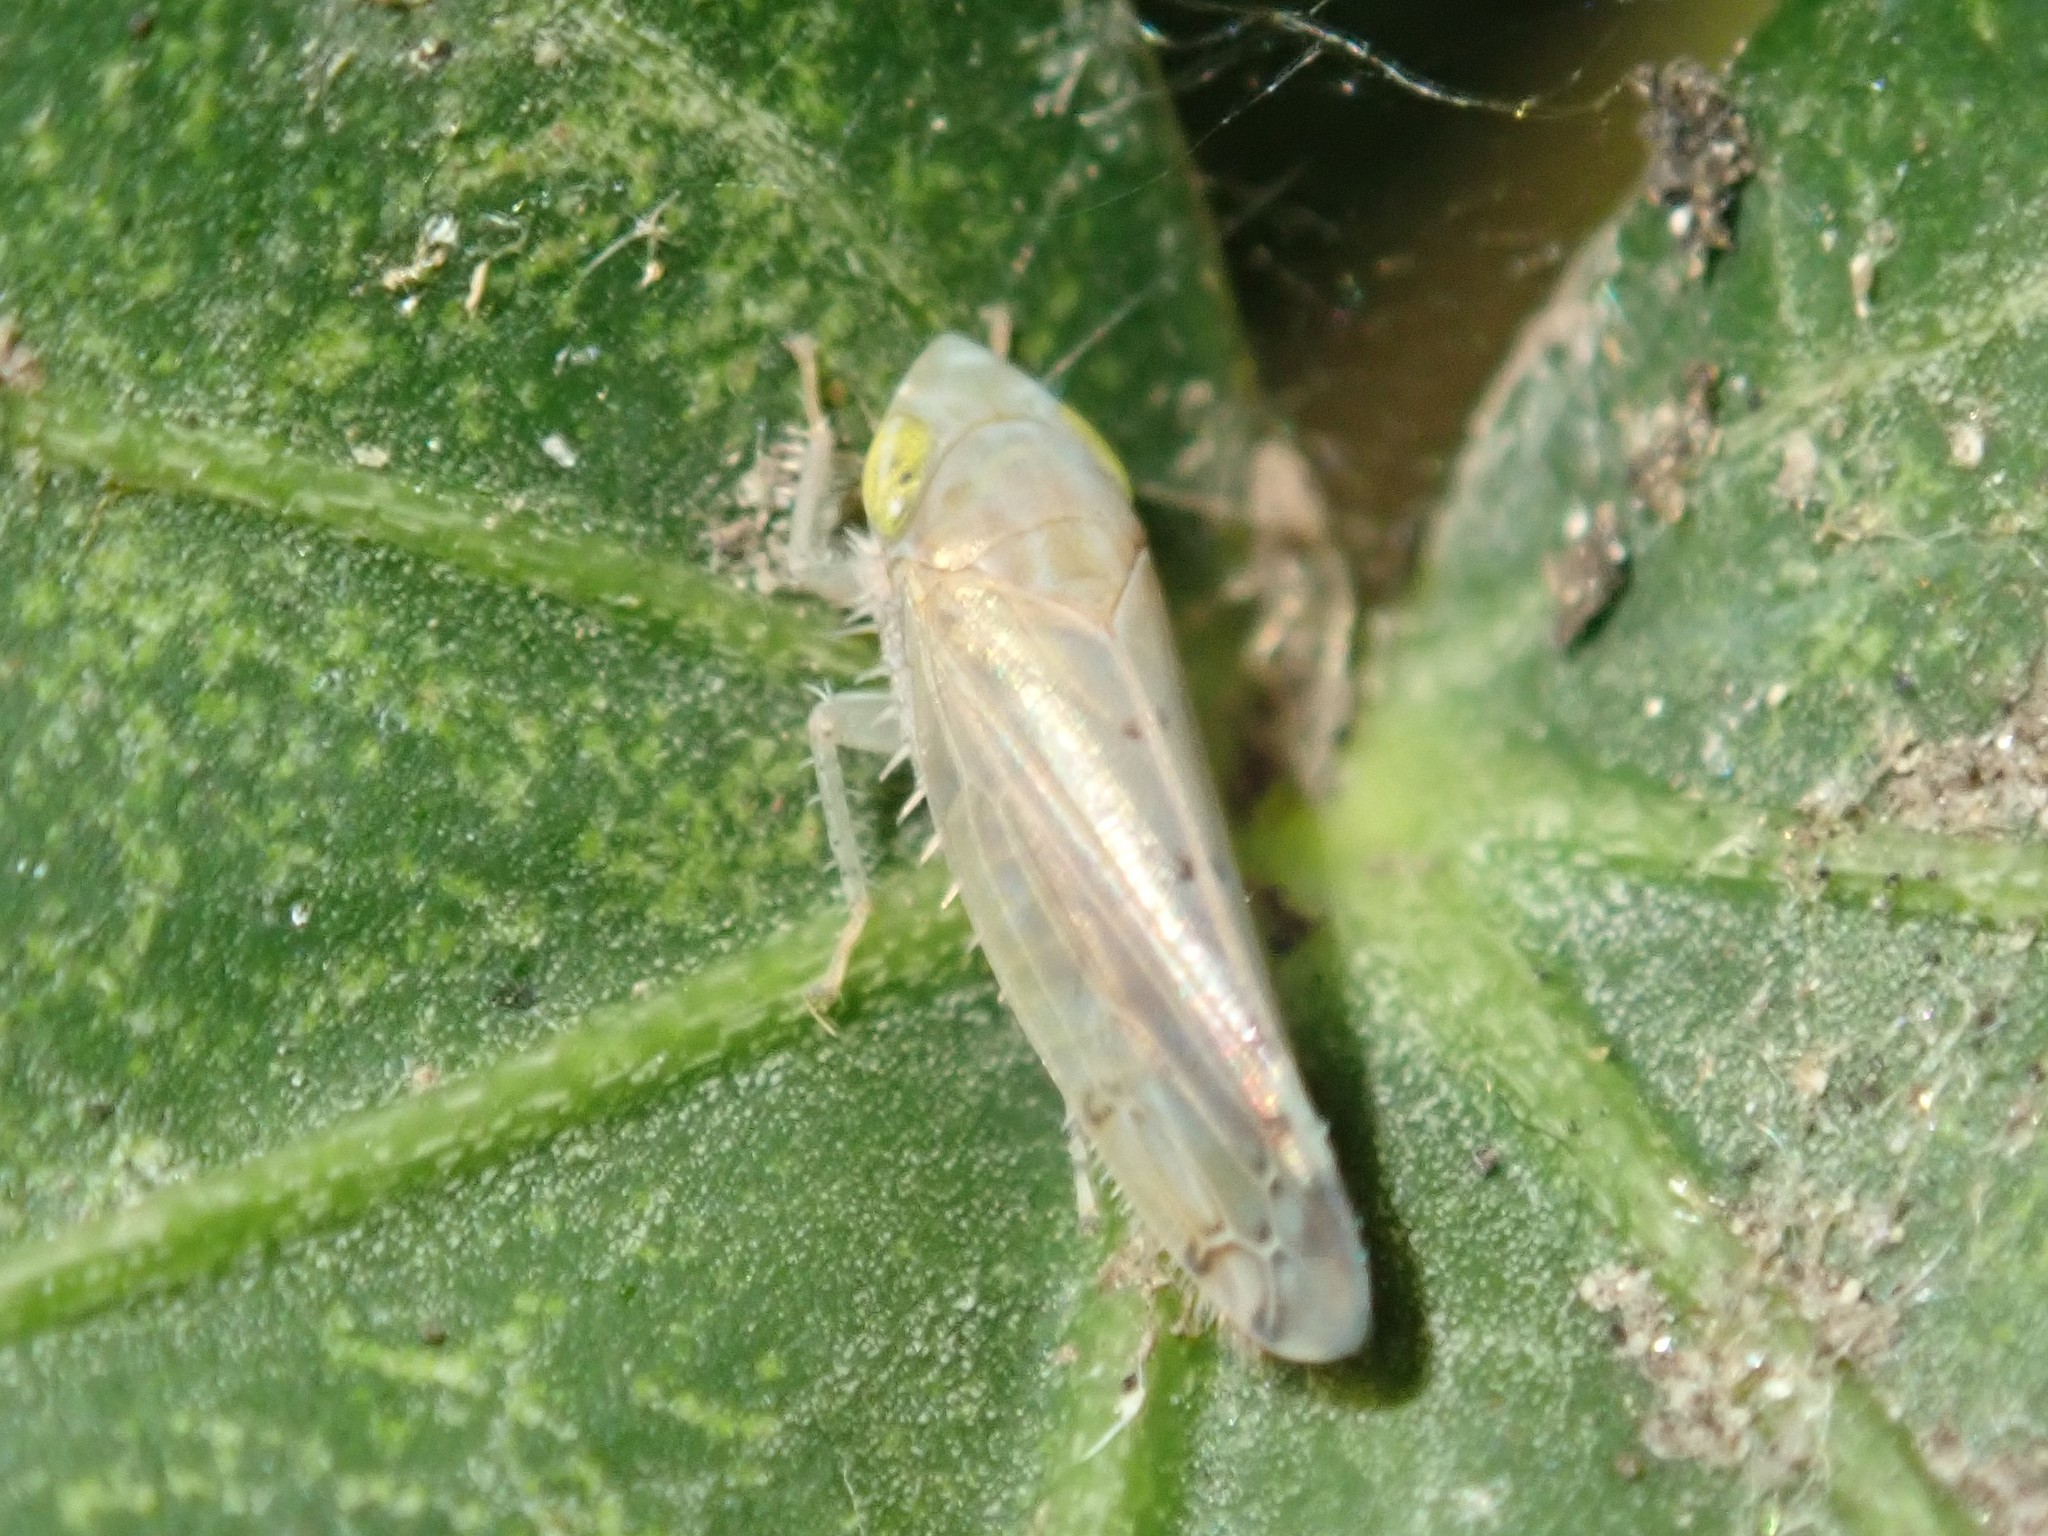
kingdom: Animalia
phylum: Arthropoda
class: Insecta
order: Hemiptera
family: Cicadellidae
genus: Synophropsis
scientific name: Synophropsis lauri
